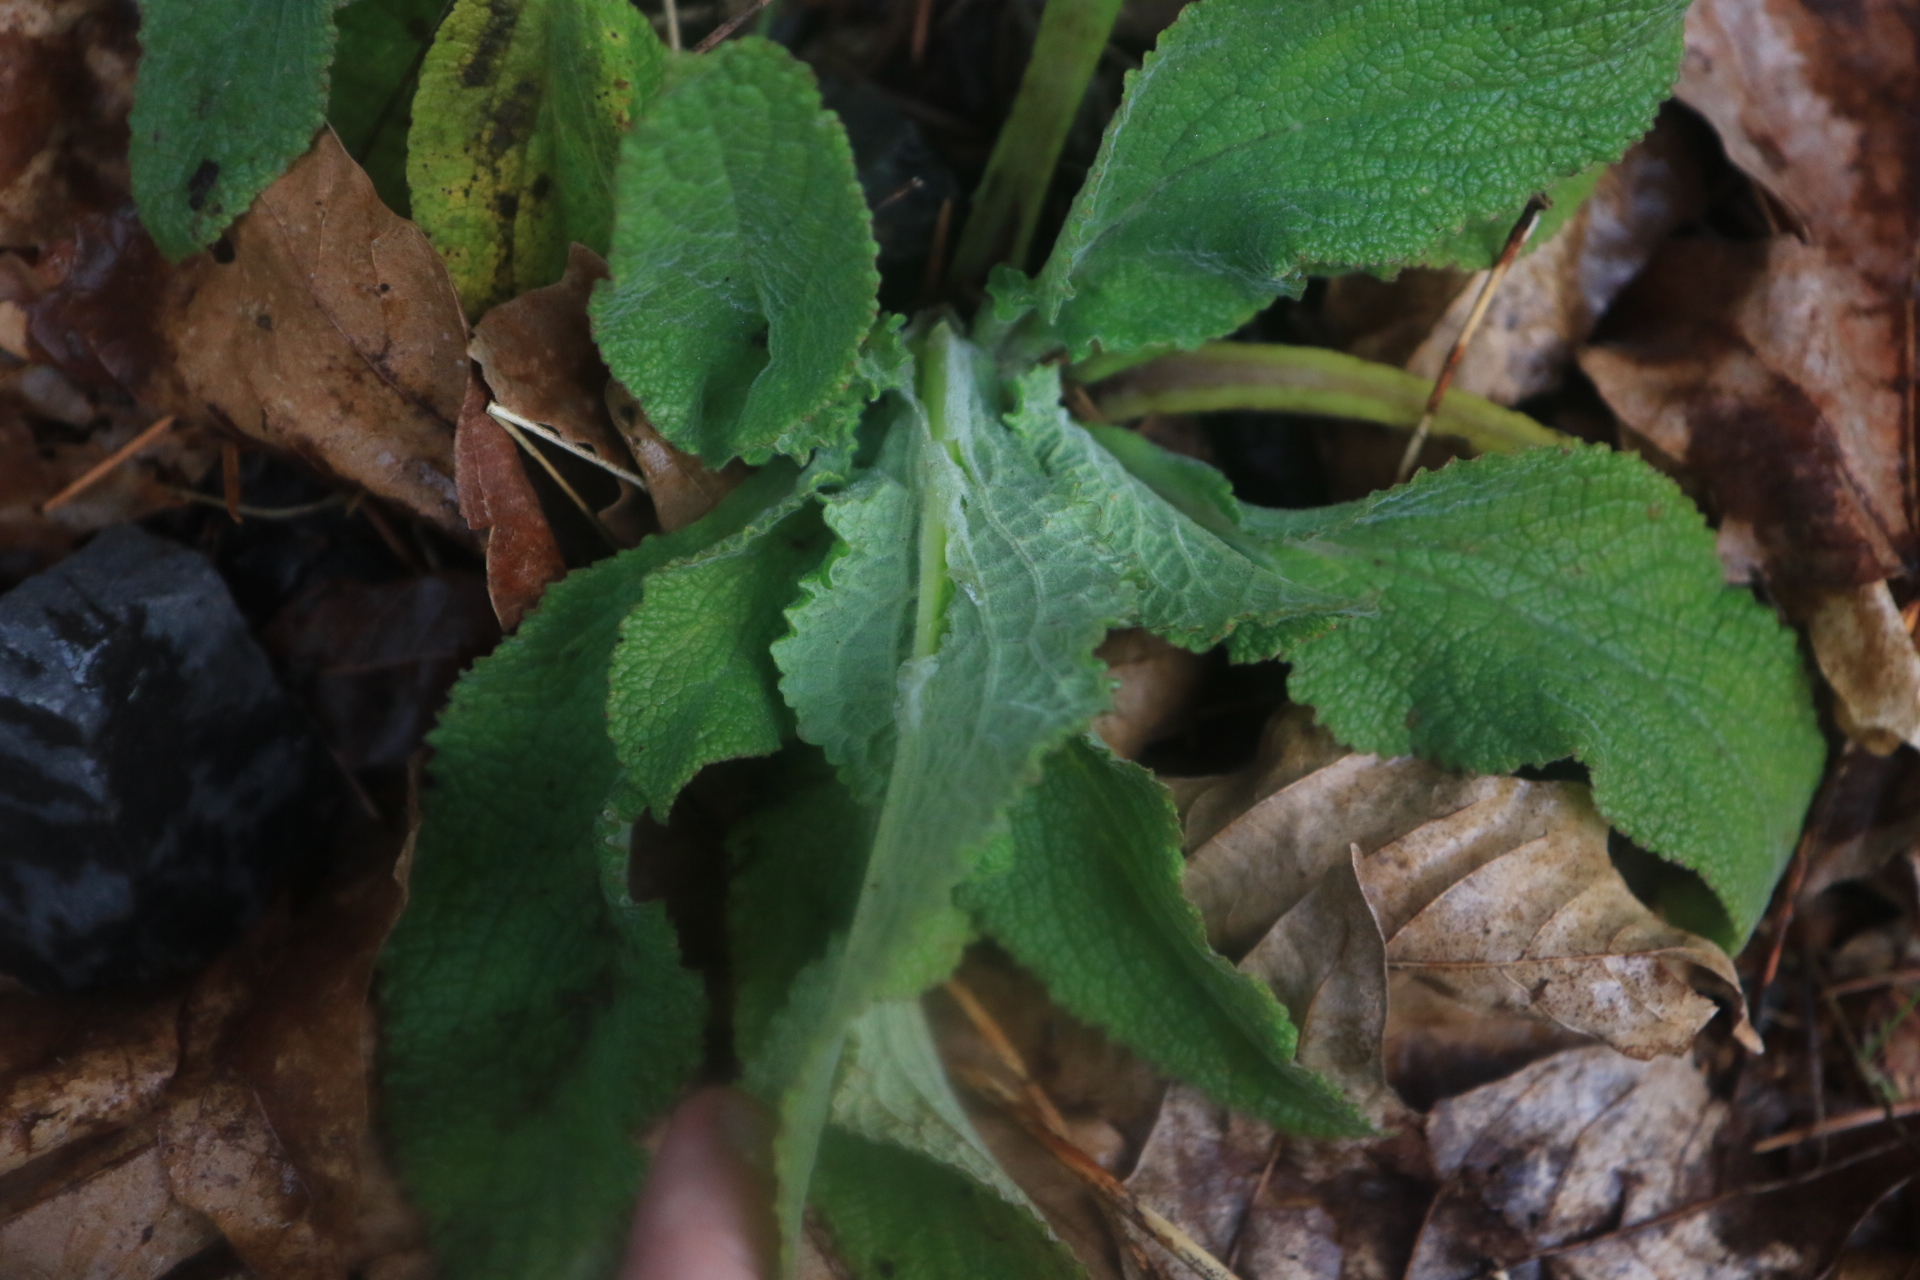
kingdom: Plantae
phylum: Tracheophyta
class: Magnoliopsida
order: Lamiales
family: Plantaginaceae
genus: Digitalis
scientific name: Digitalis purpurea
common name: Foxglove
